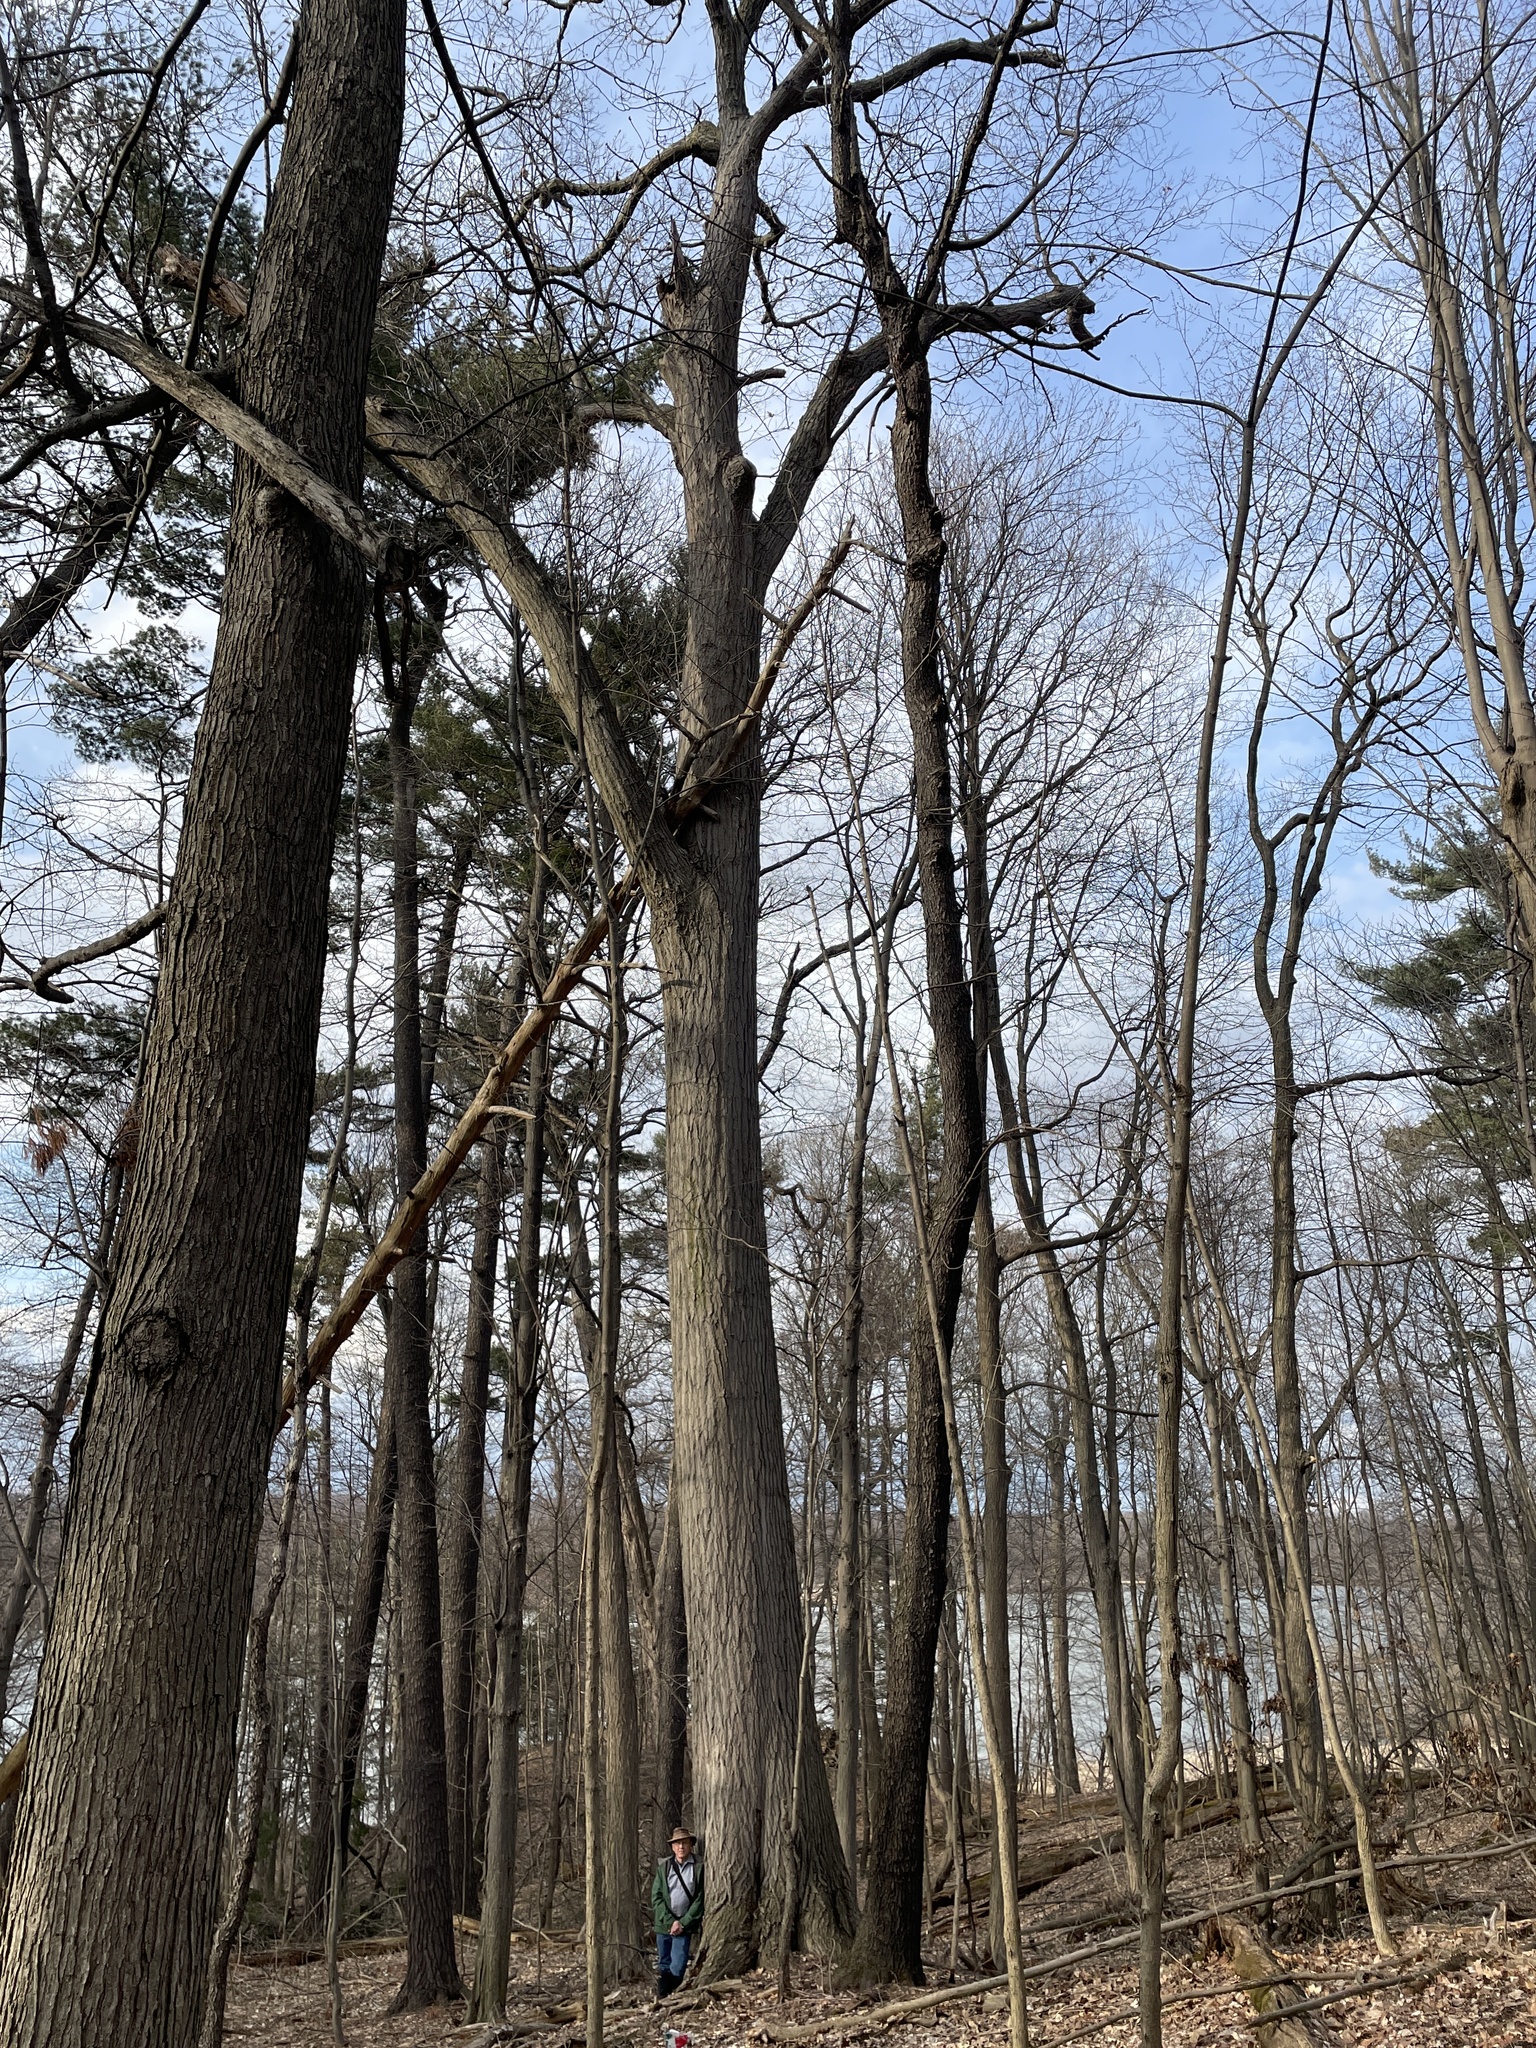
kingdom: Plantae
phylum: Tracheophyta
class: Magnoliopsida
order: Fagales
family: Fagaceae
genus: Quercus
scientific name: Quercus rubra
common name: Red oak
